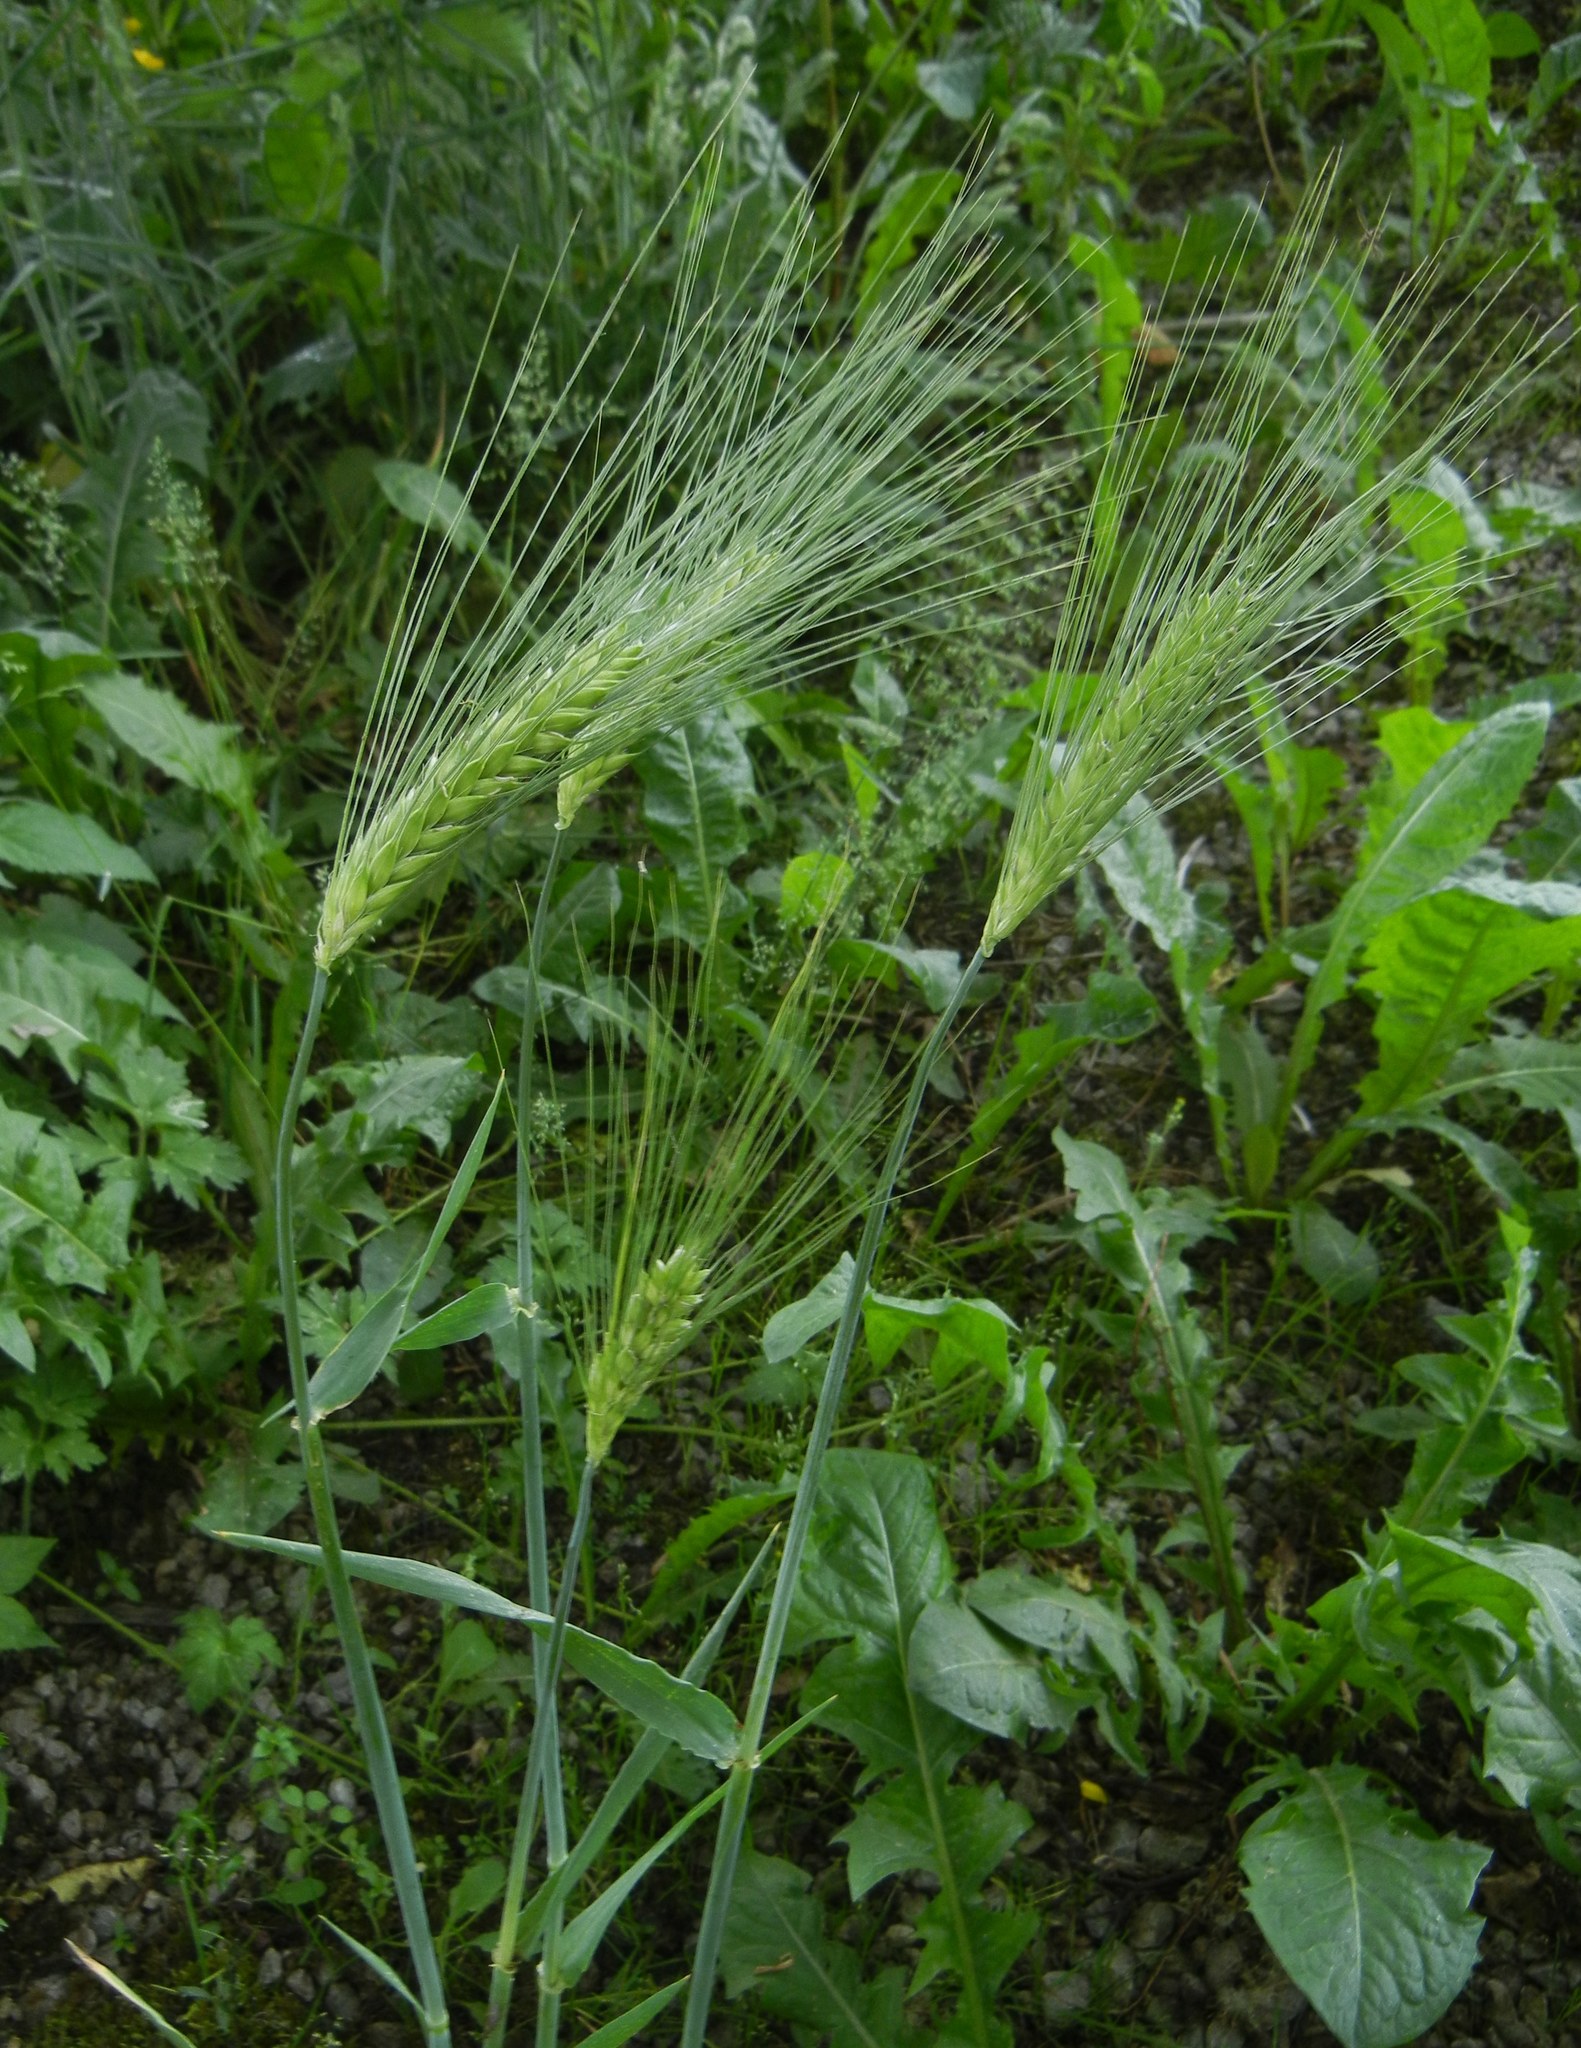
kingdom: Plantae
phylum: Tracheophyta
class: Liliopsida
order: Poales
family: Poaceae
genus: Hordeum
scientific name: Hordeum vulgare
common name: Common barley
